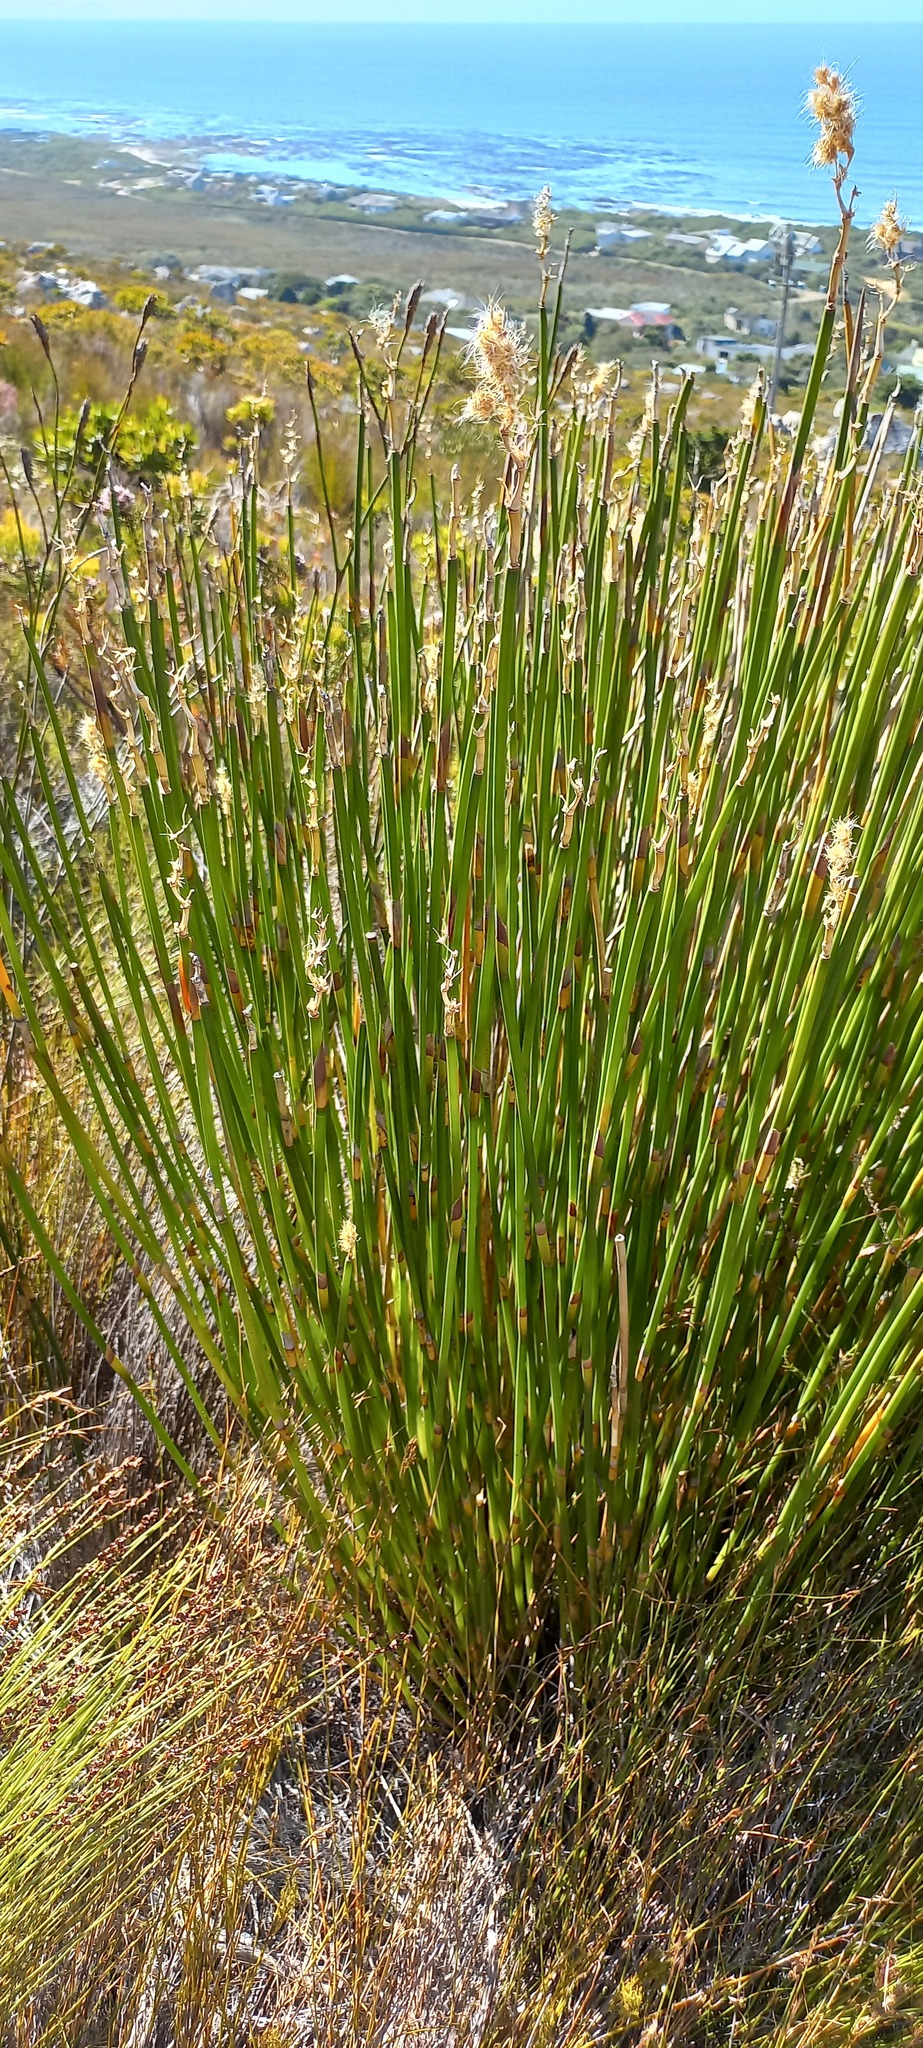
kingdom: Plantae
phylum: Tracheophyta
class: Liliopsida
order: Poales
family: Restionaceae
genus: Ceratocaryum
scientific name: Ceratocaryum caespitosum
